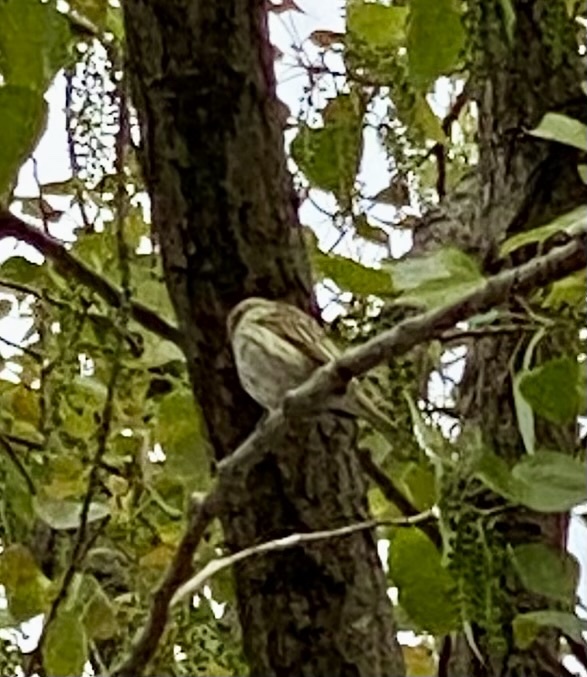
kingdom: Animalia
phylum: Chordata
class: Aves
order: Passeriformes
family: Thraupidae
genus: Sicalis
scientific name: Sicalis flaveola
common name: Saffron finch
